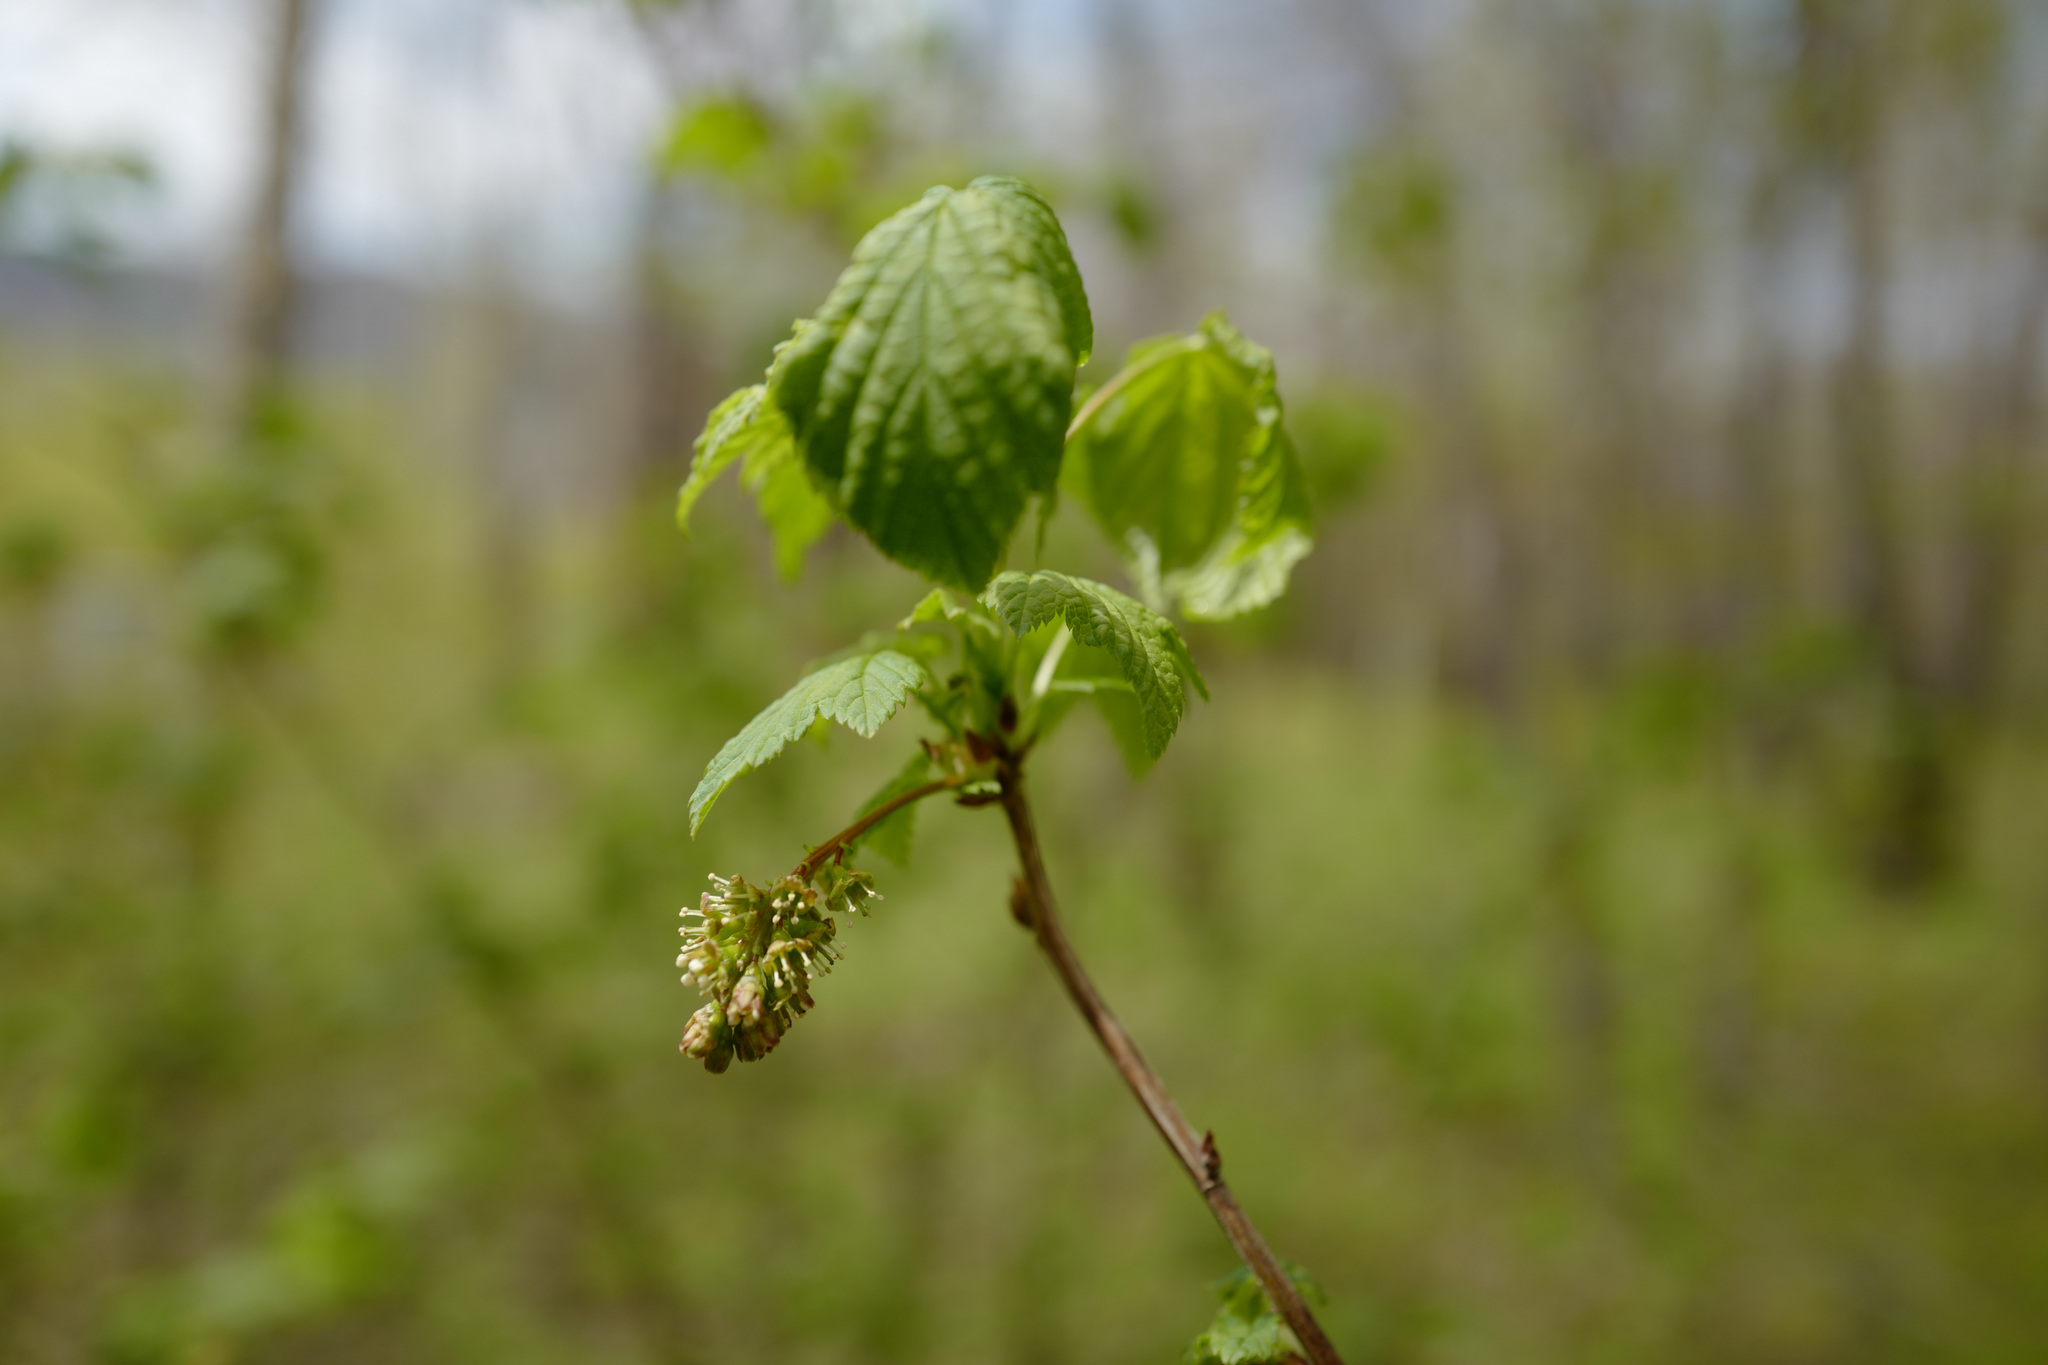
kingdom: Plantae
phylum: Tracheophyta
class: Magnoliopsida
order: Saxifragales
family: Grossulariaceae
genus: Ribes
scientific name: Ribes mandshuricum
